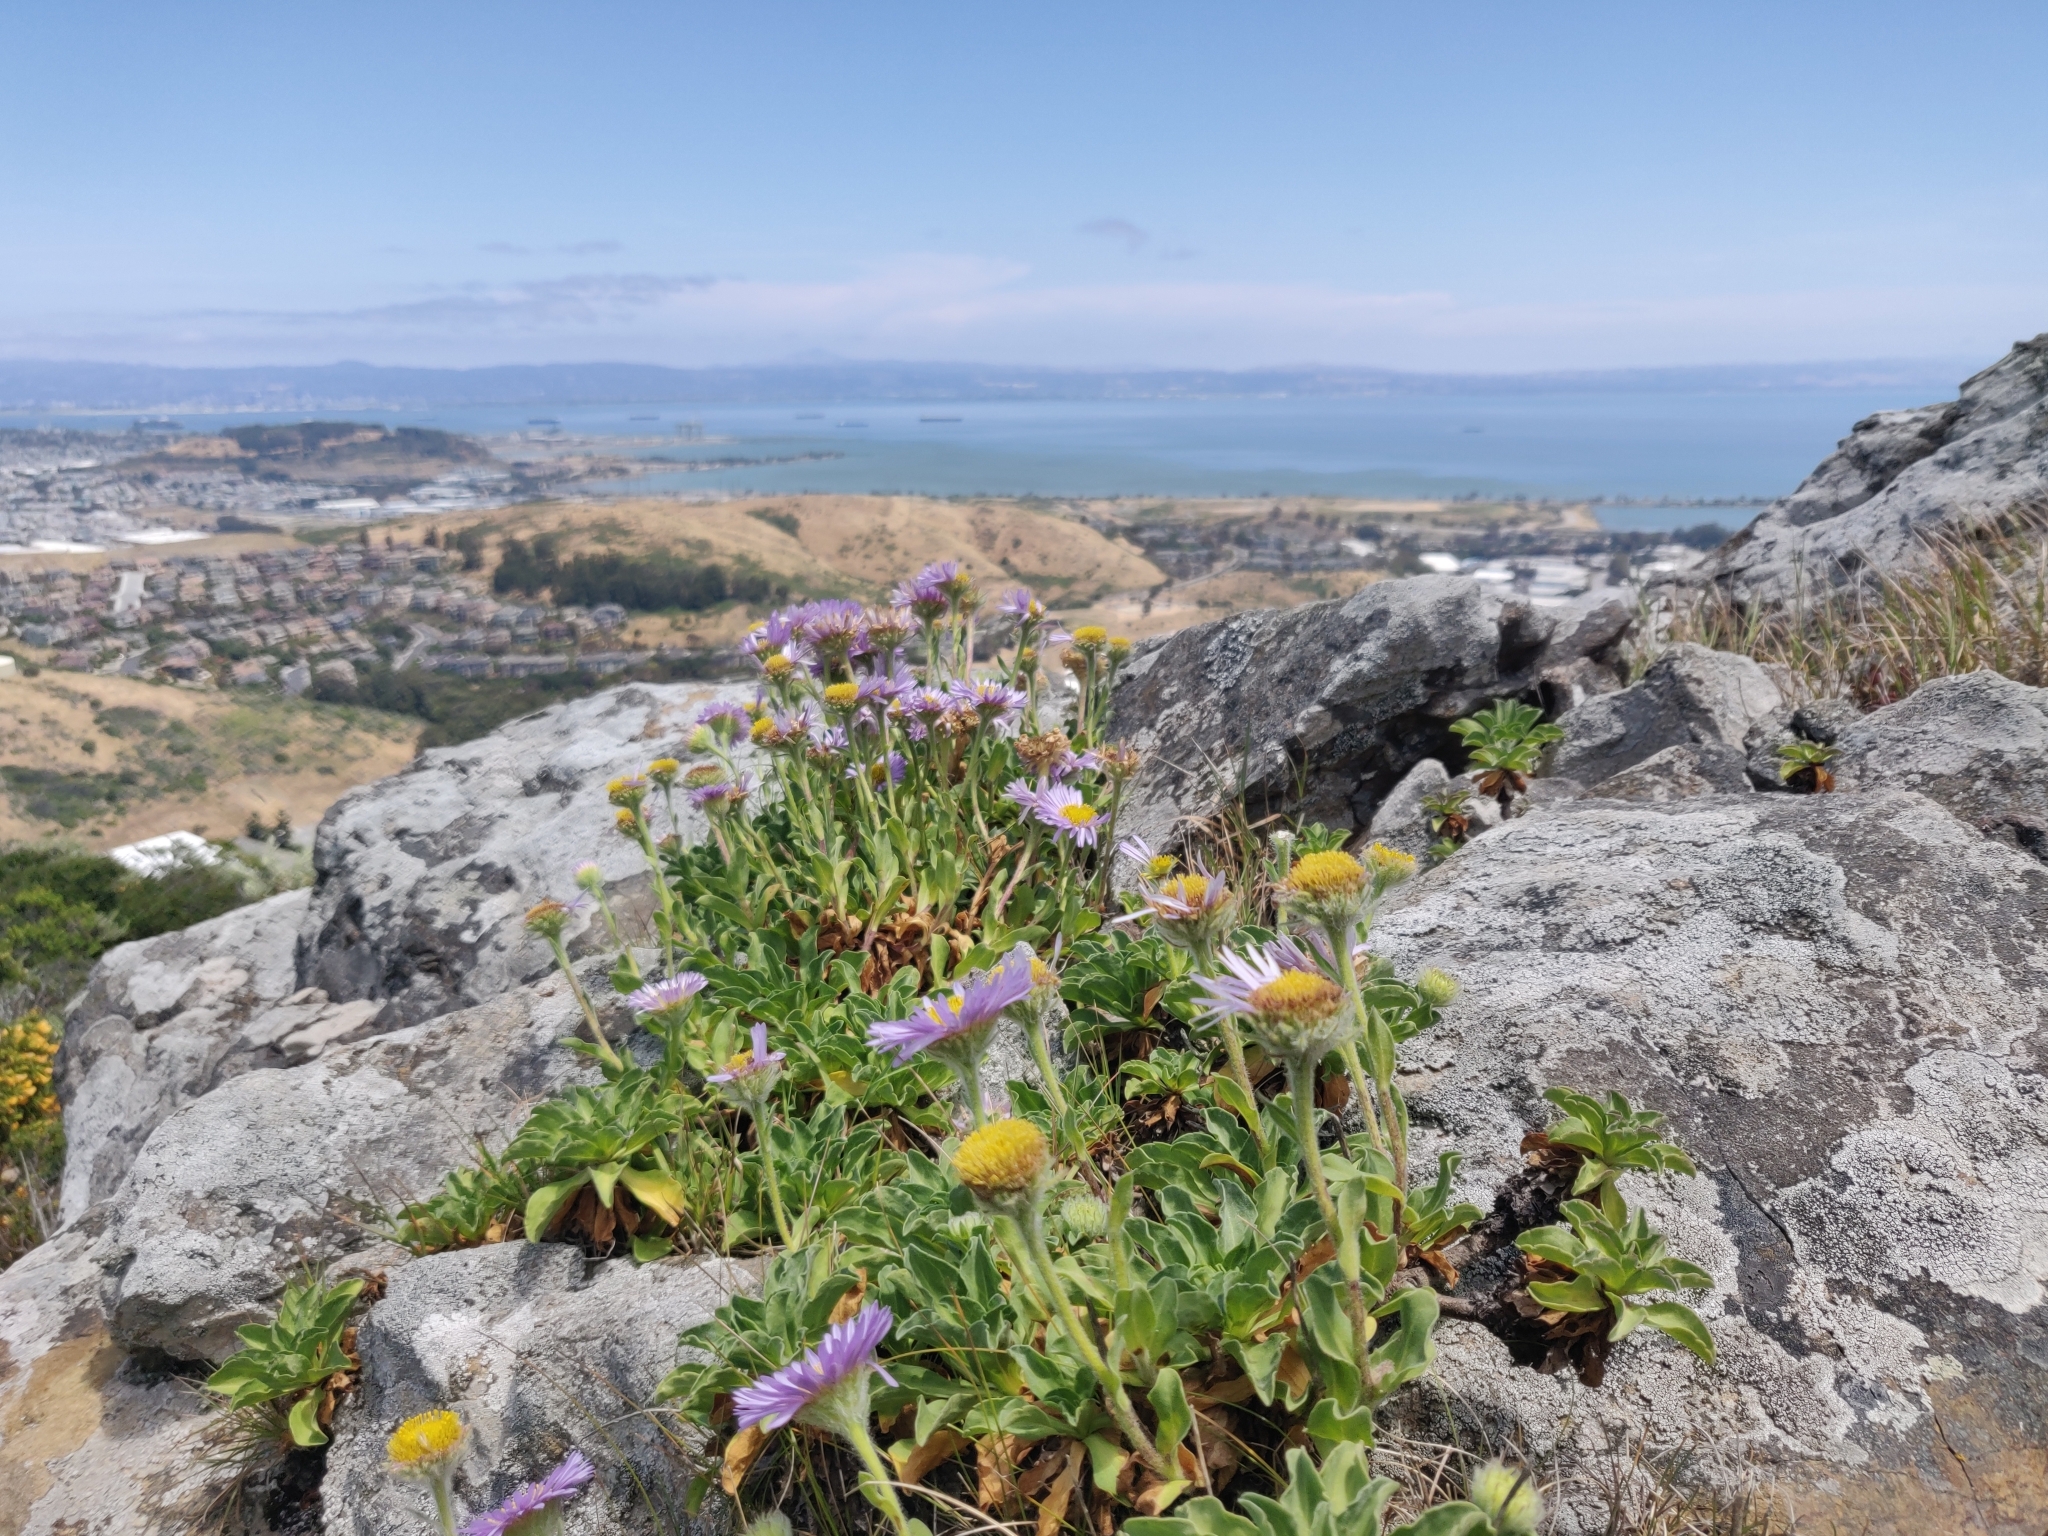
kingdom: Plantae
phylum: Tracheophyta
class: Magnoliopsida
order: Asterales
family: Asteraceae
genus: Erigeron
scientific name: Erigeron glaucus
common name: Seaside daisy
